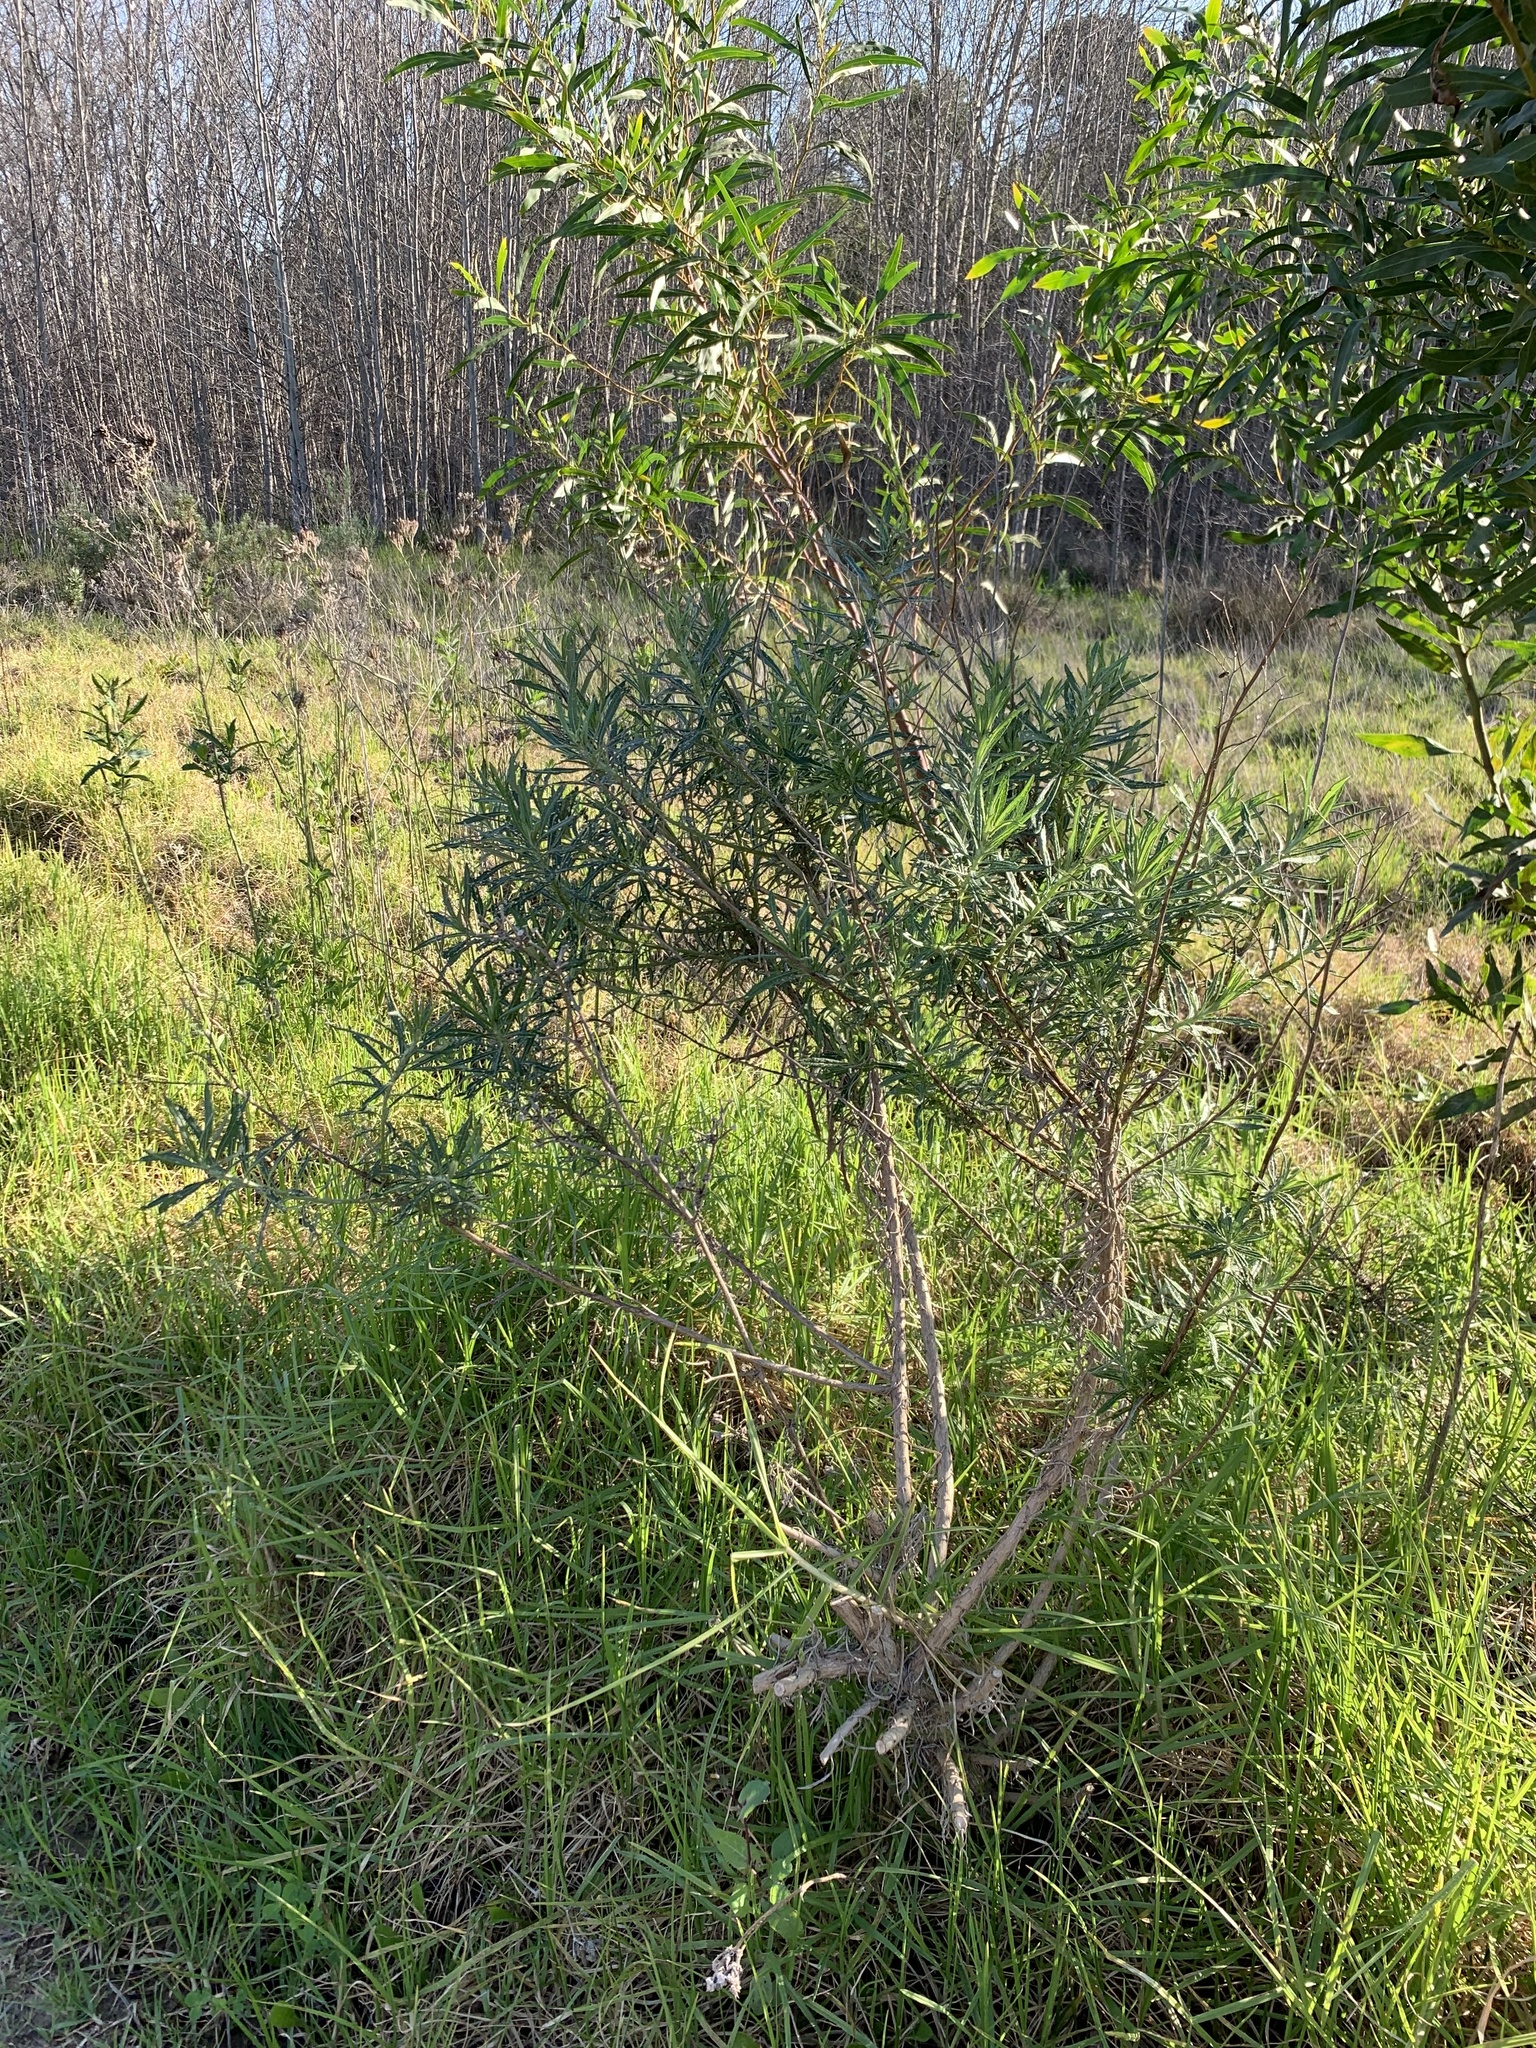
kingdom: Plantae
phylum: Tracheophyta
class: Magnoliopsida
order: Asterales
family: Asteraceae
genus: Senecio
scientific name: Senecio pterophorus
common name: Shoddy ragwort
